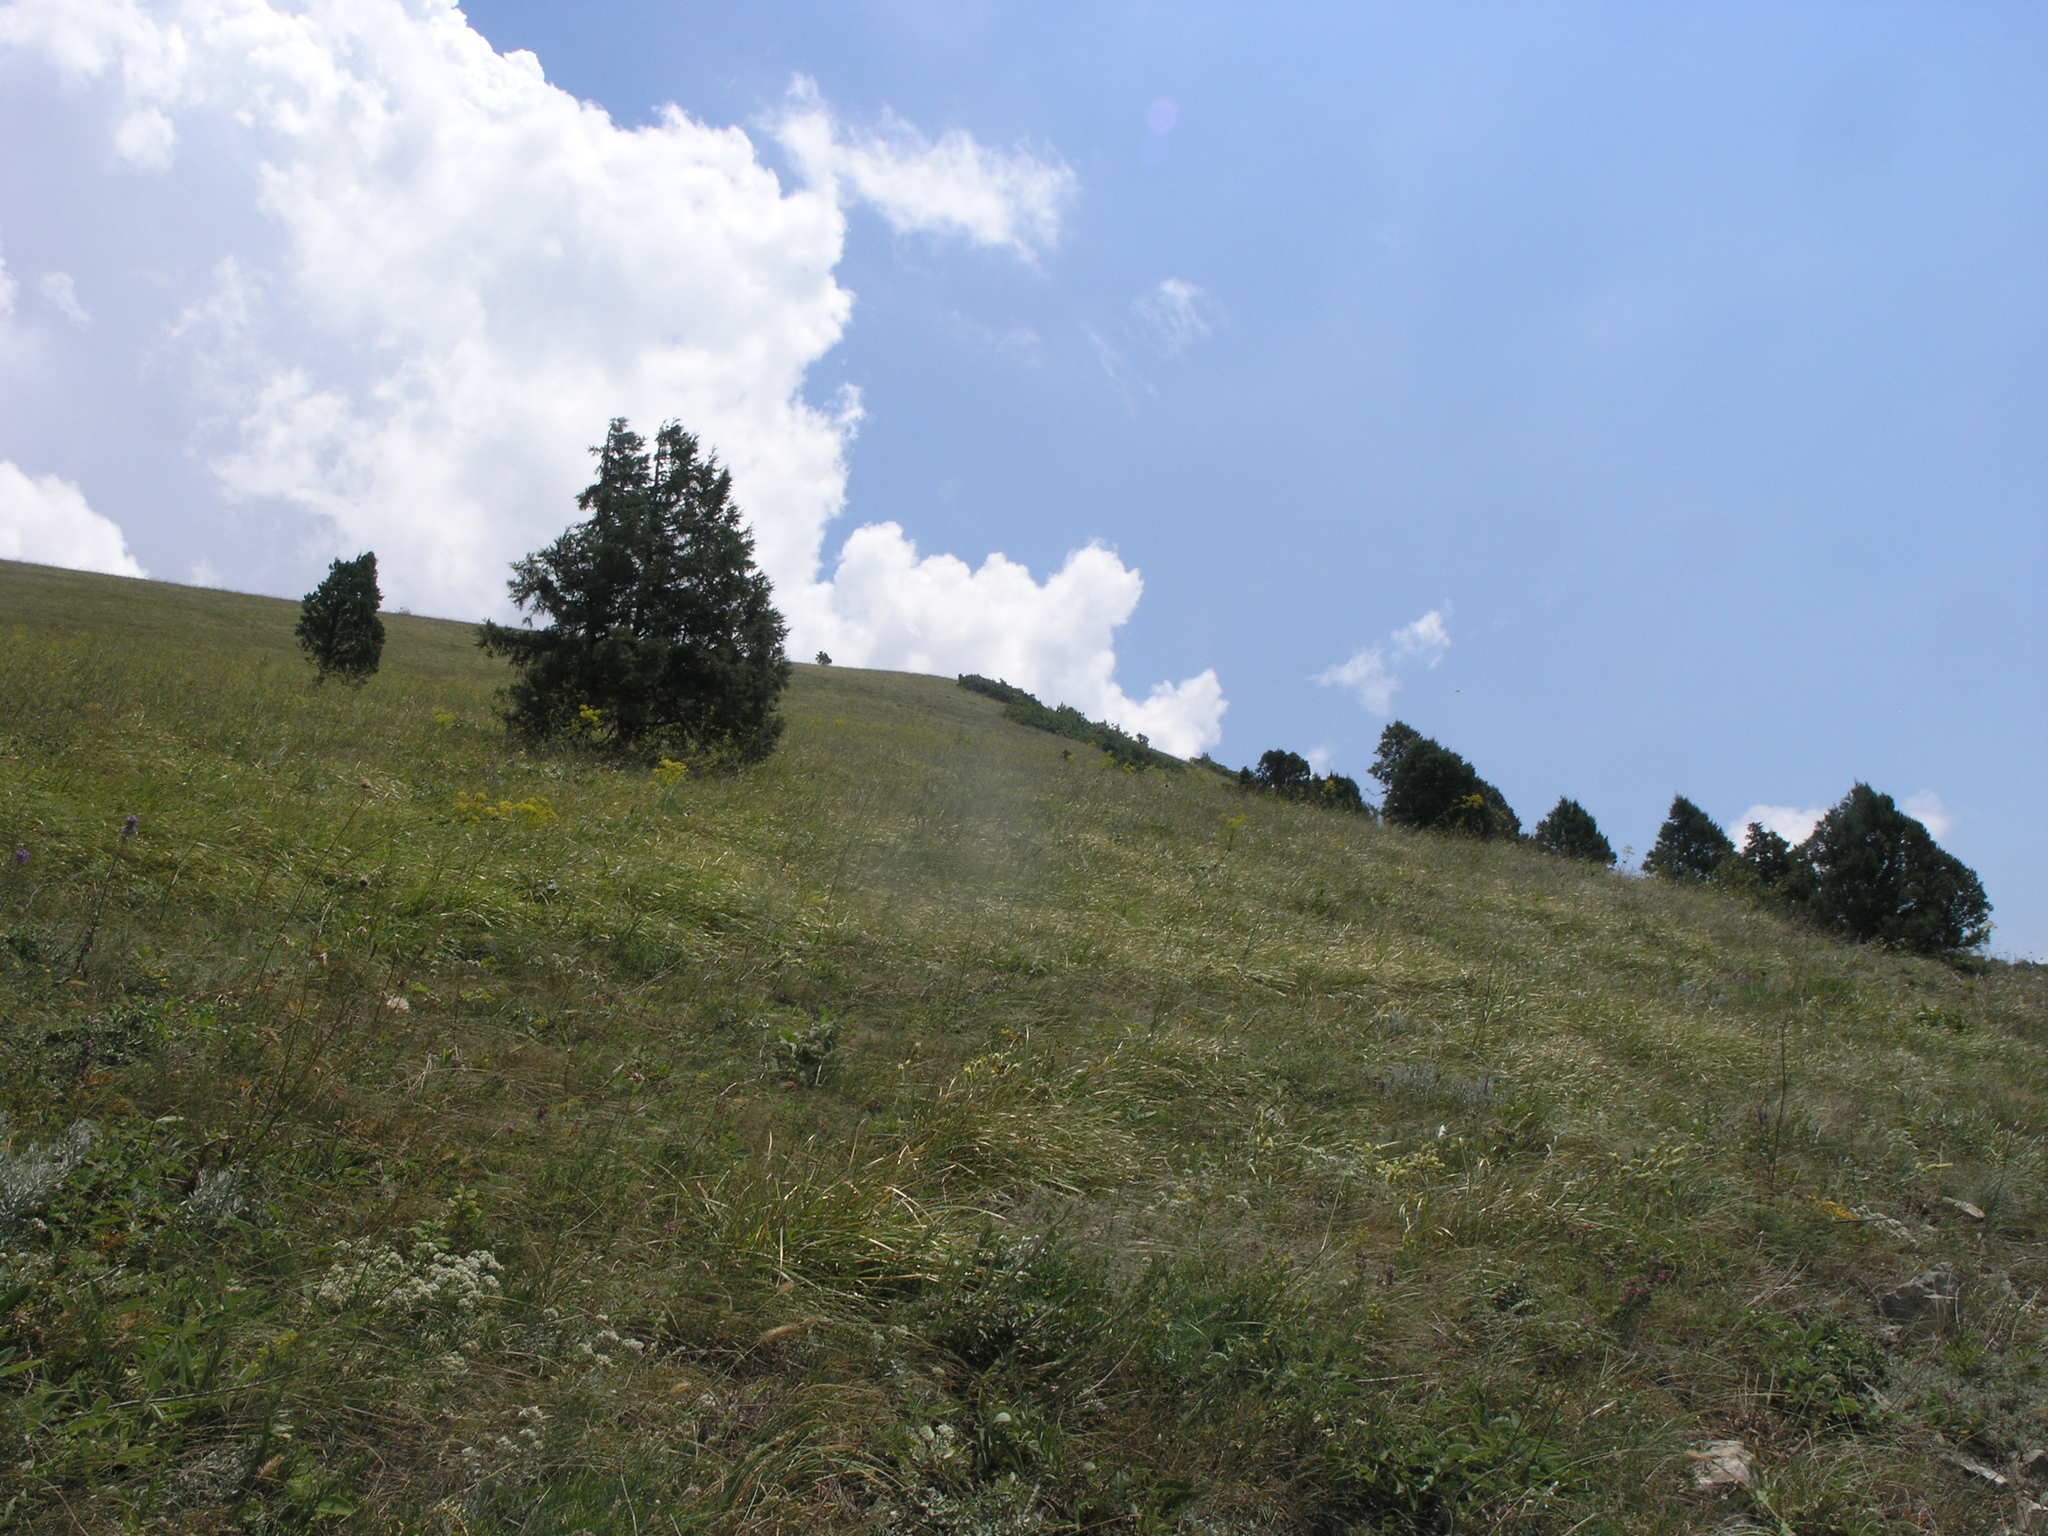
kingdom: Plantae
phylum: Tracheophyta
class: Pinopsida
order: Pinales
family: Cupressaceae
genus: Juniperus
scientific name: Juniperus excelsa
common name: Crimean juniper
